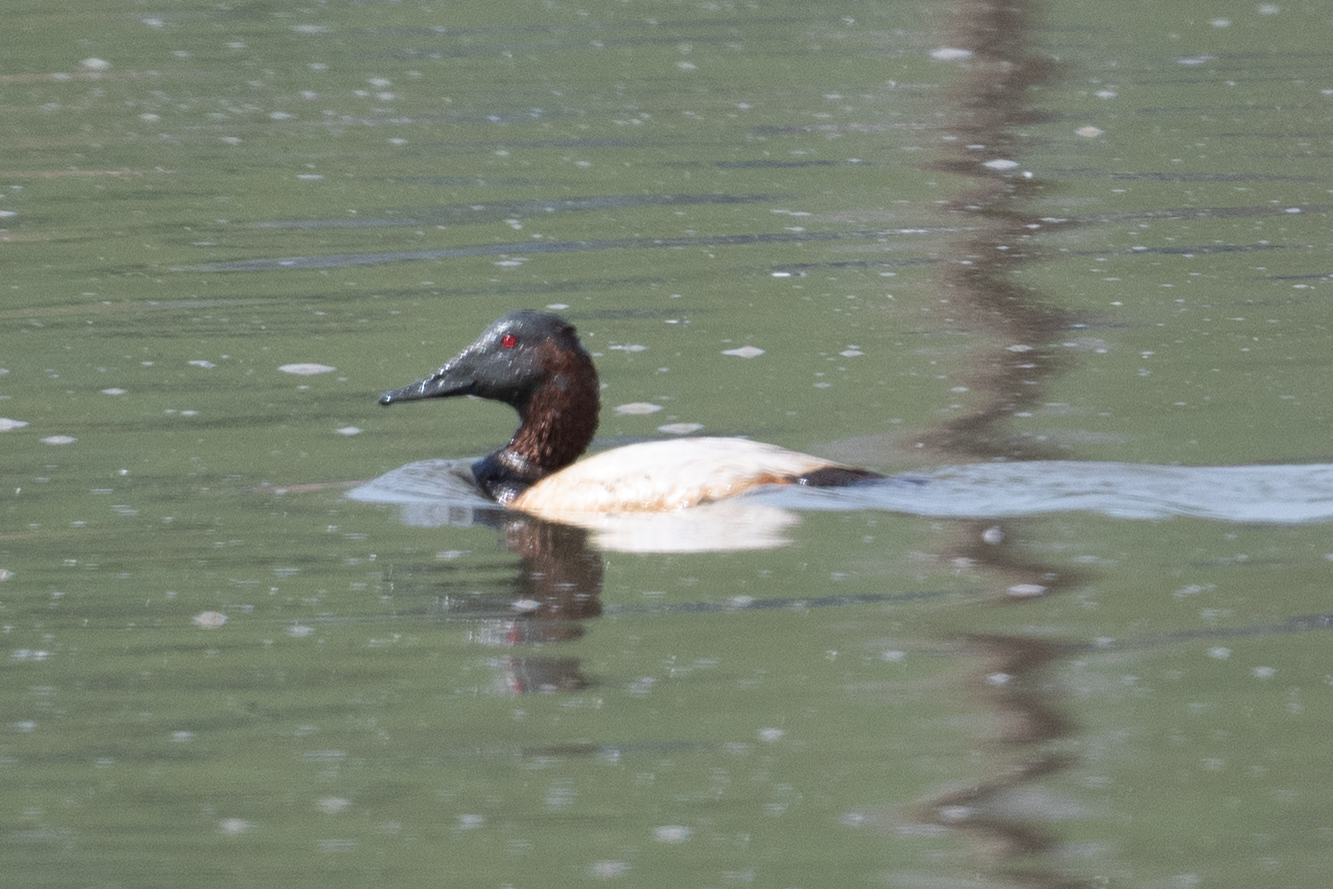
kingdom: Animalia
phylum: Chordata
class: Aves
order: Anseriformes
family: Anatidae
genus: Aythya
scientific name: Aythya valisineria
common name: Canvasback
